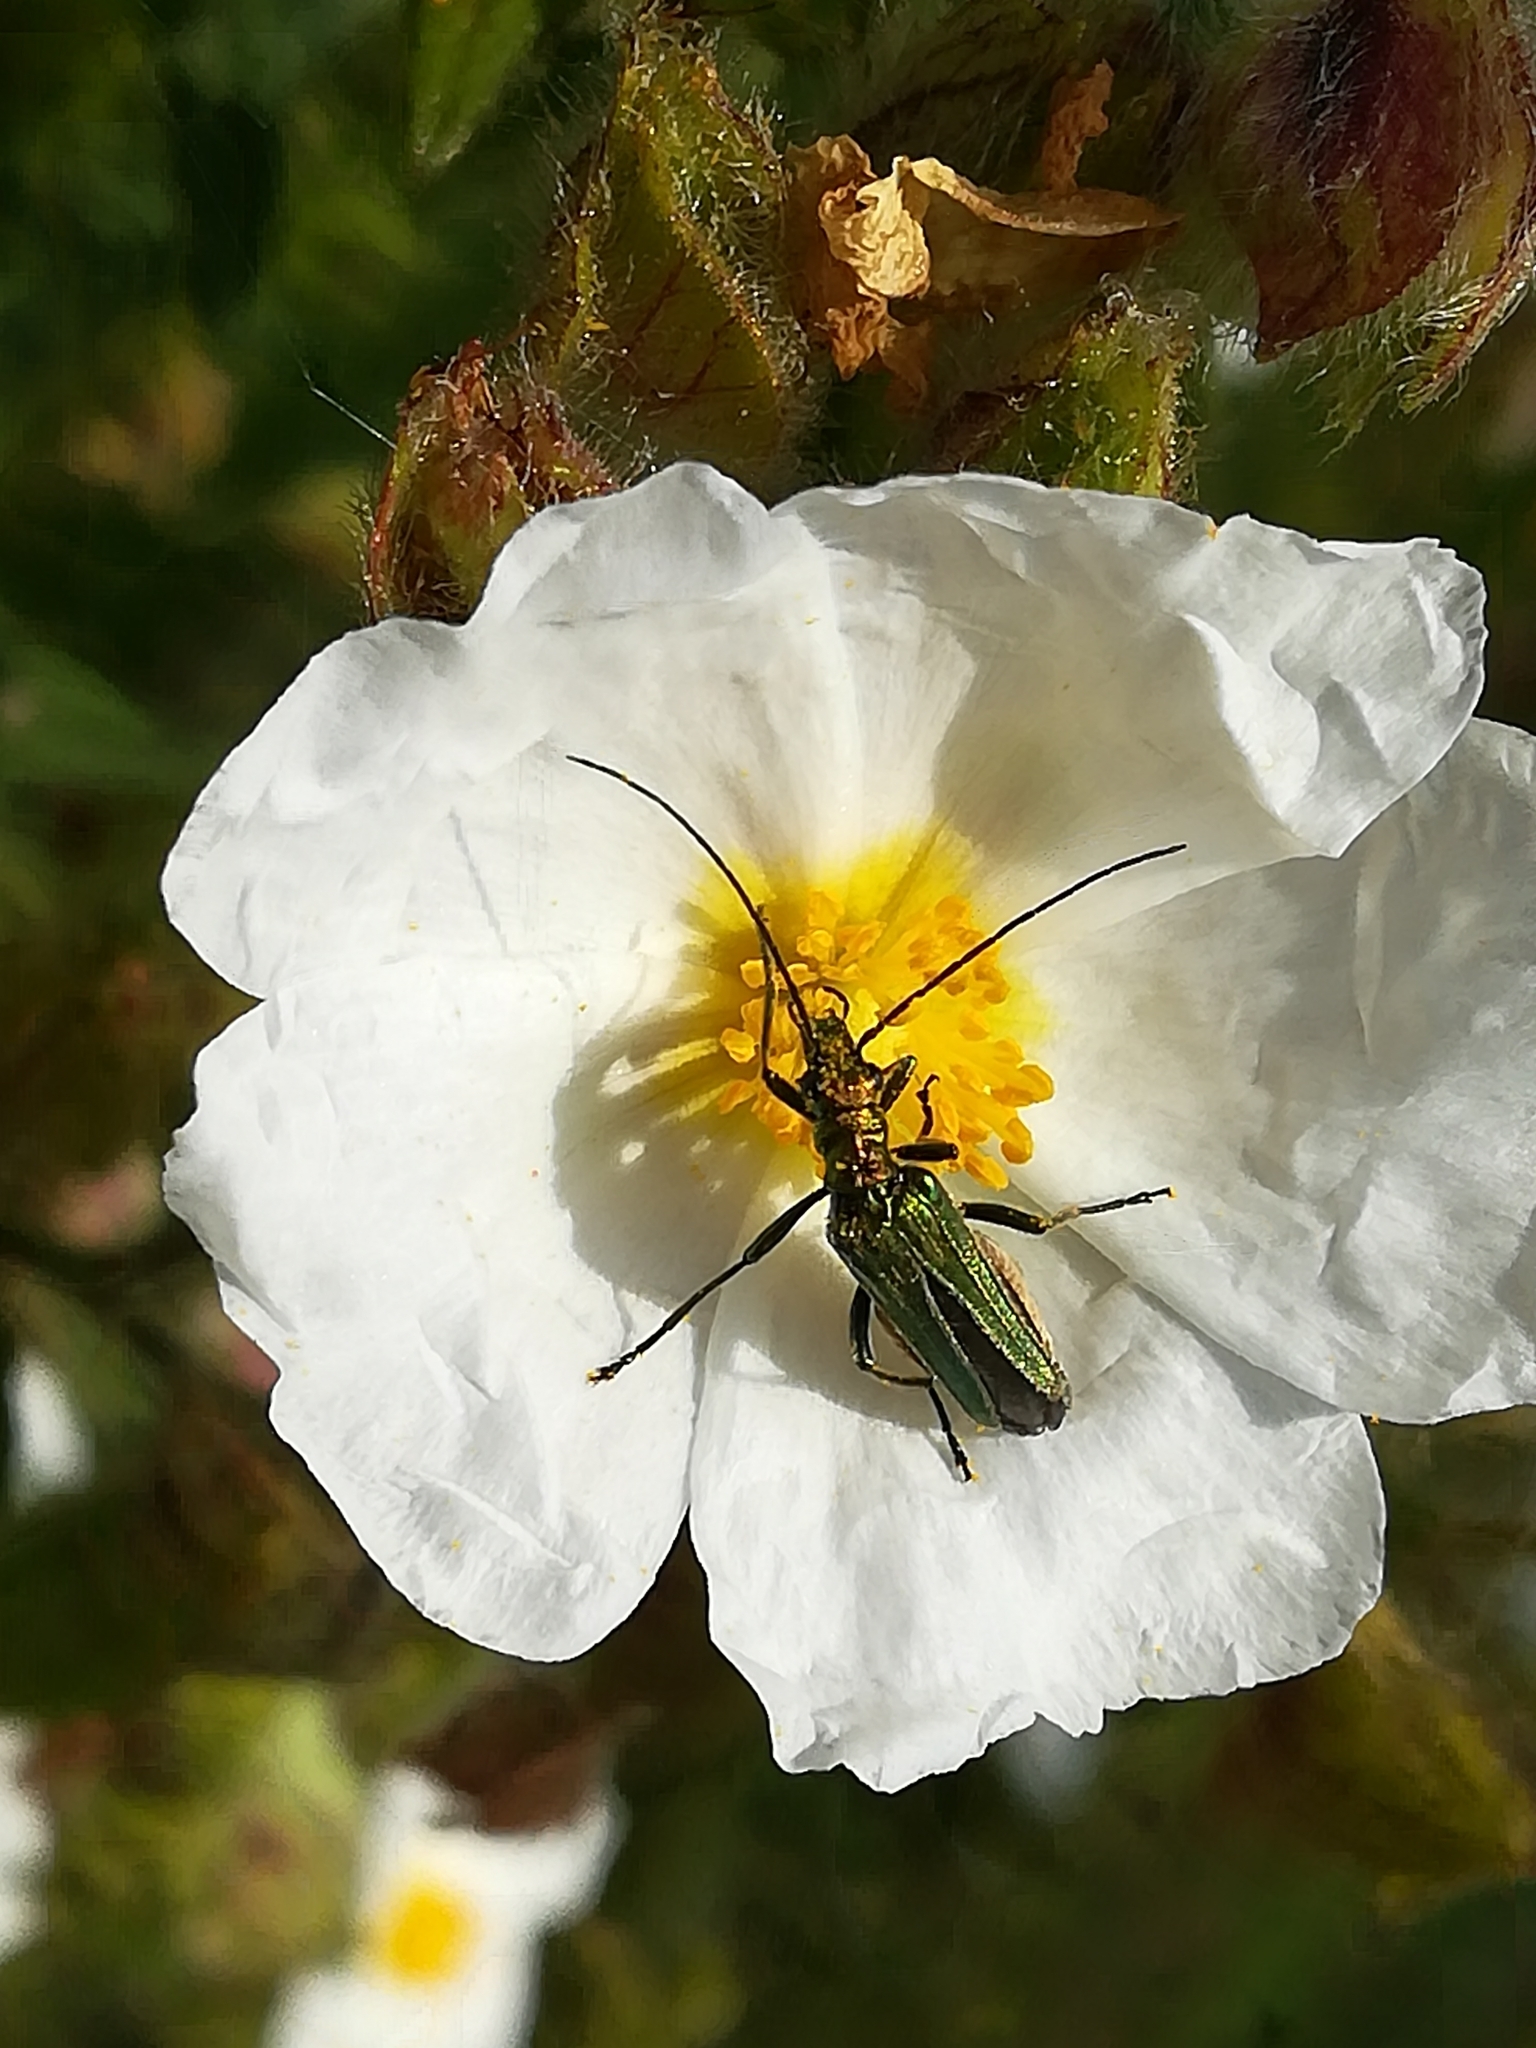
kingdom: Animalia
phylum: Arthropoda
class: Insecta
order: Coleoptera
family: Oedemeridae
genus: Oedemera
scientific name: Oedemera nobilis
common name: Swollen-thighed beetle
